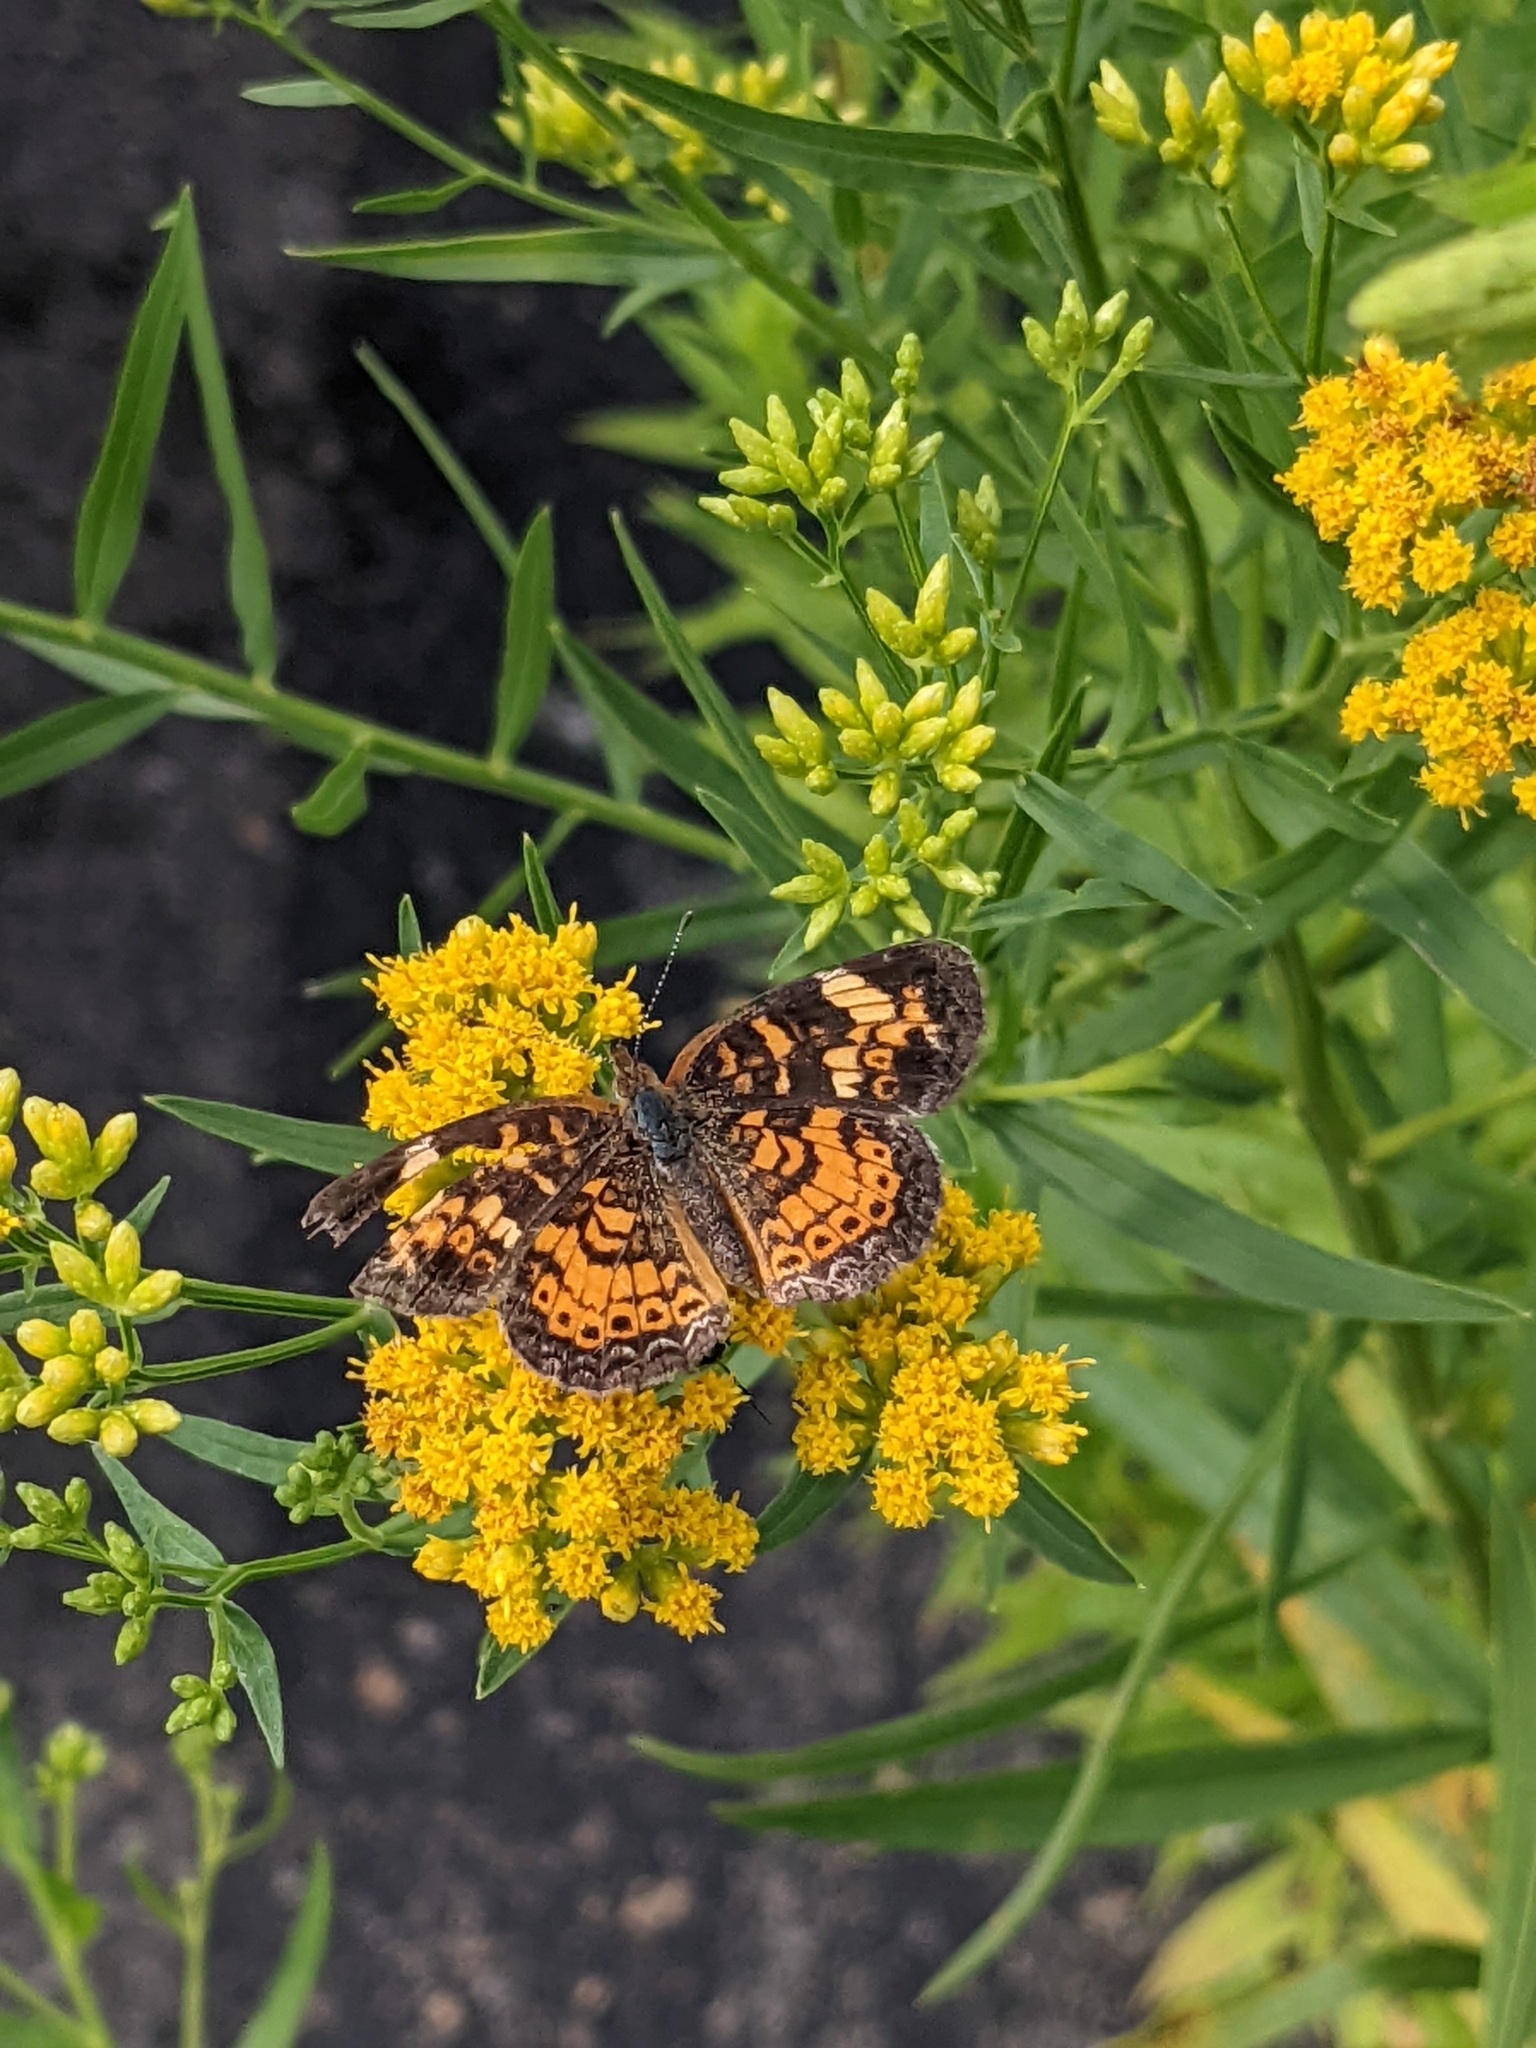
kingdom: Animalia
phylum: Arthropoda
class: Insecta
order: Lepidoptera
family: Nymphalidae
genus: Phyciodes
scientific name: Phyciodes tharos
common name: Pearl crescent
